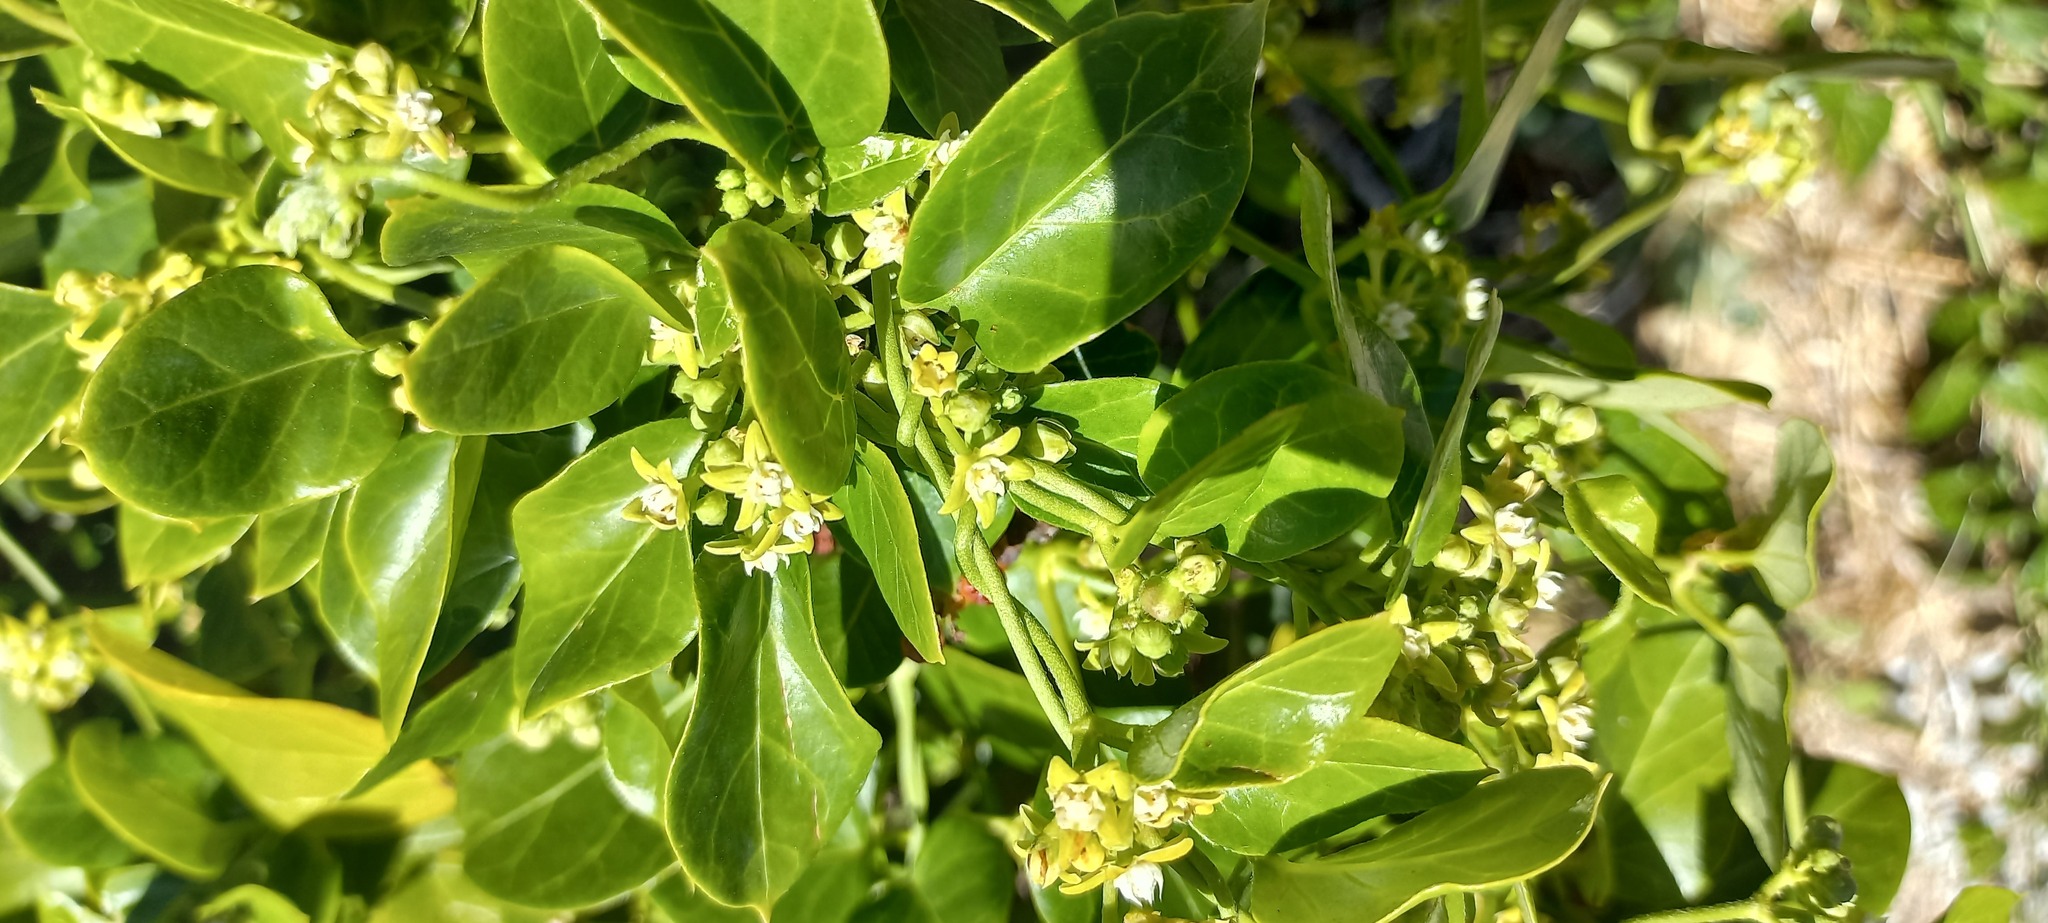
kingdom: Plantae
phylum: Tracheophyta
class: Magnoliopsida
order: Gentianales
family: Apocynaceae
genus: Cynanchum
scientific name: Cynanchum obtusifolium
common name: Monkey-rope
